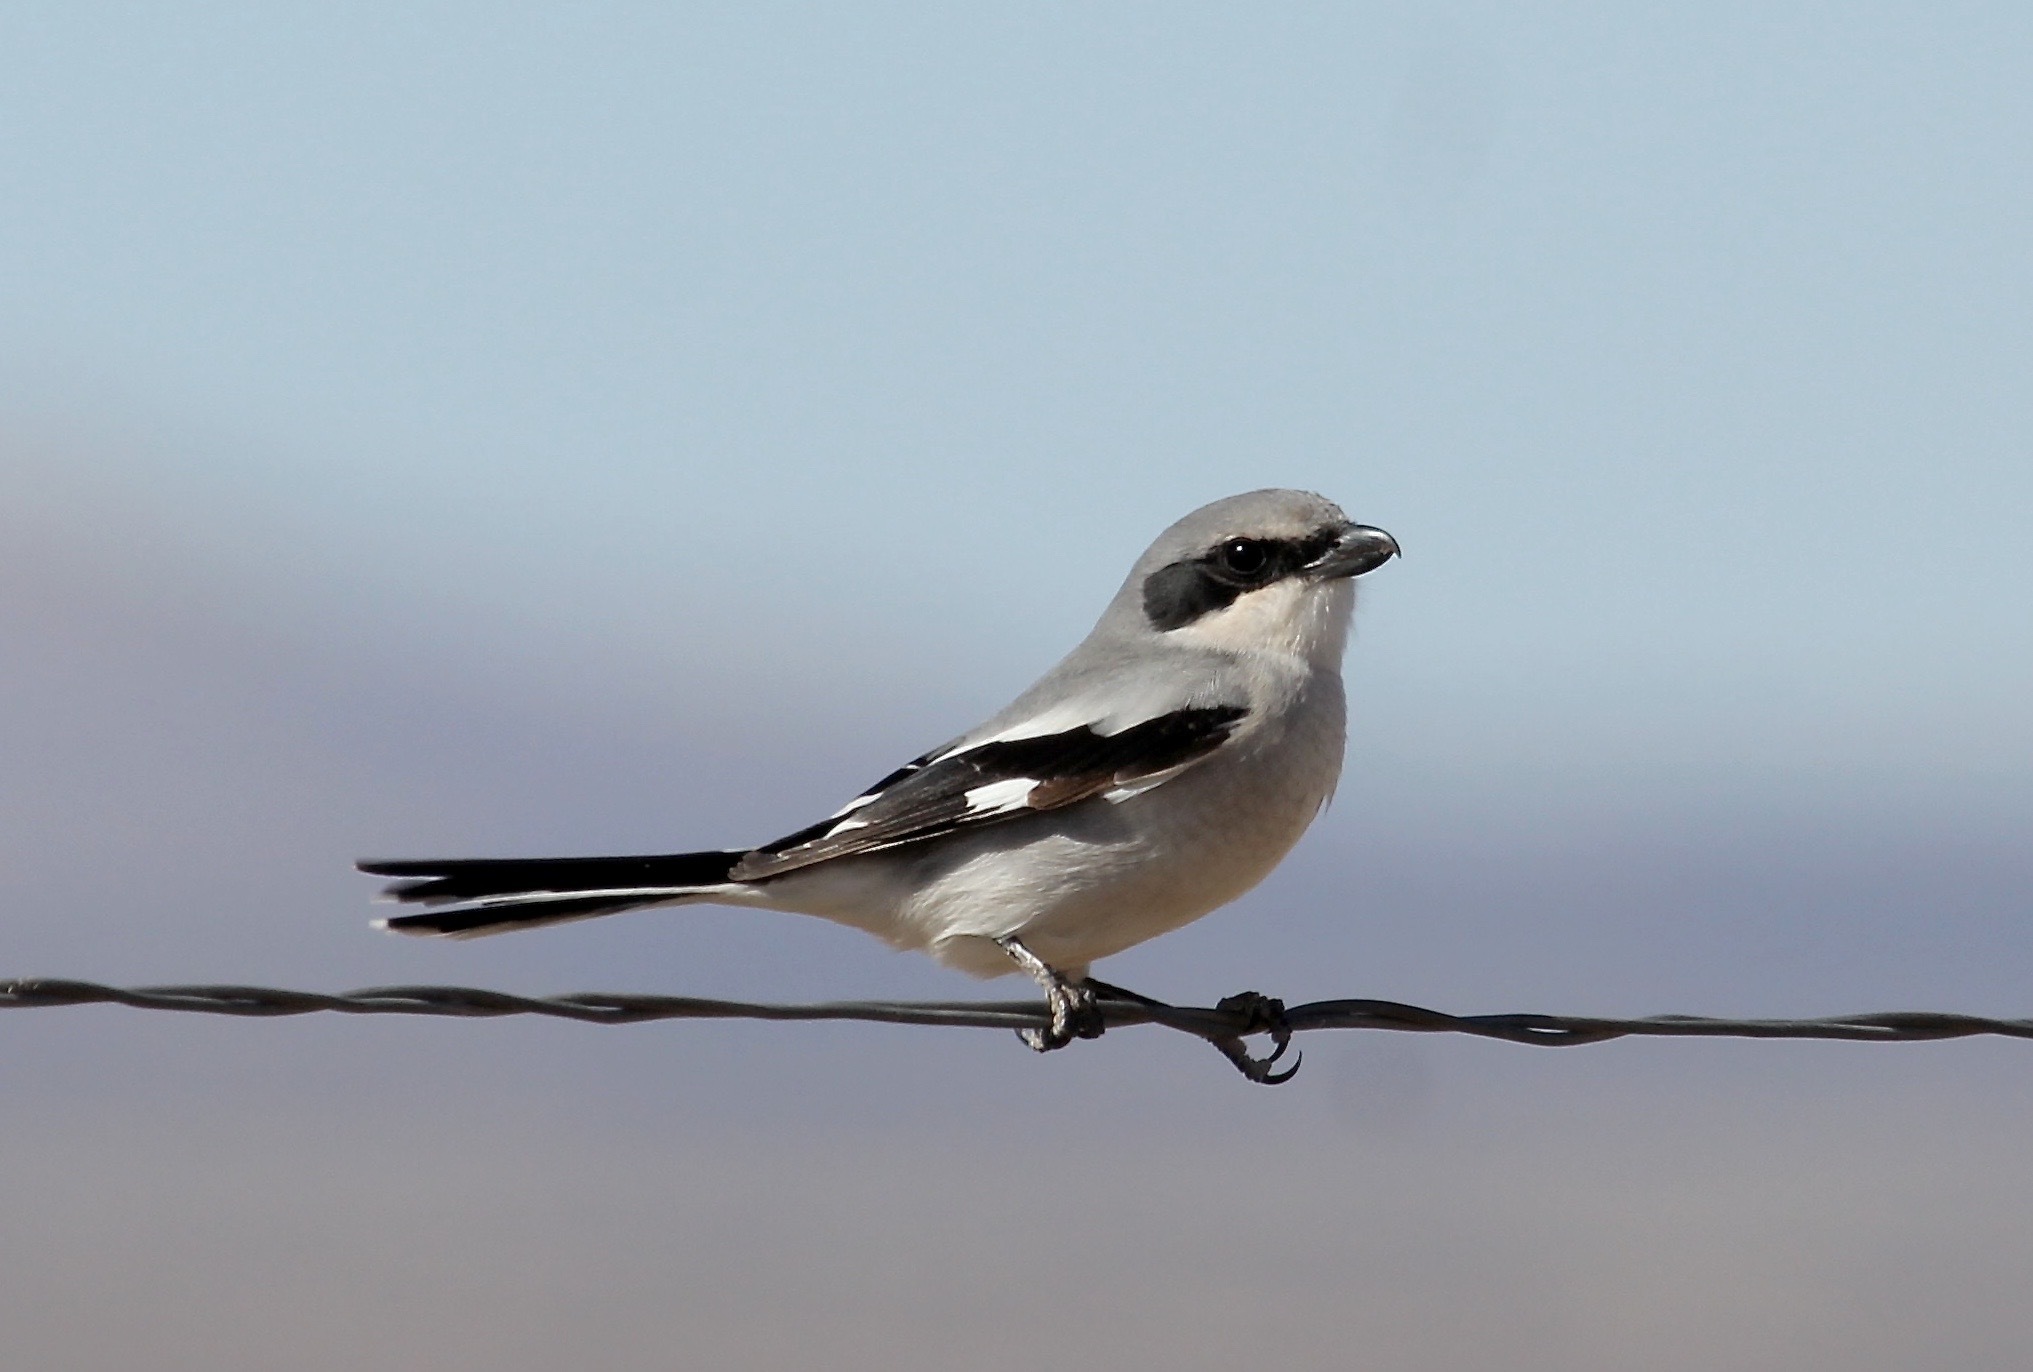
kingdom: Animalia
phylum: Chordata
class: Aves
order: Passeriformes
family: Laniidae
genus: Lanius
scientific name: Lanius ludovicianus
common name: Loggerhead shrike
